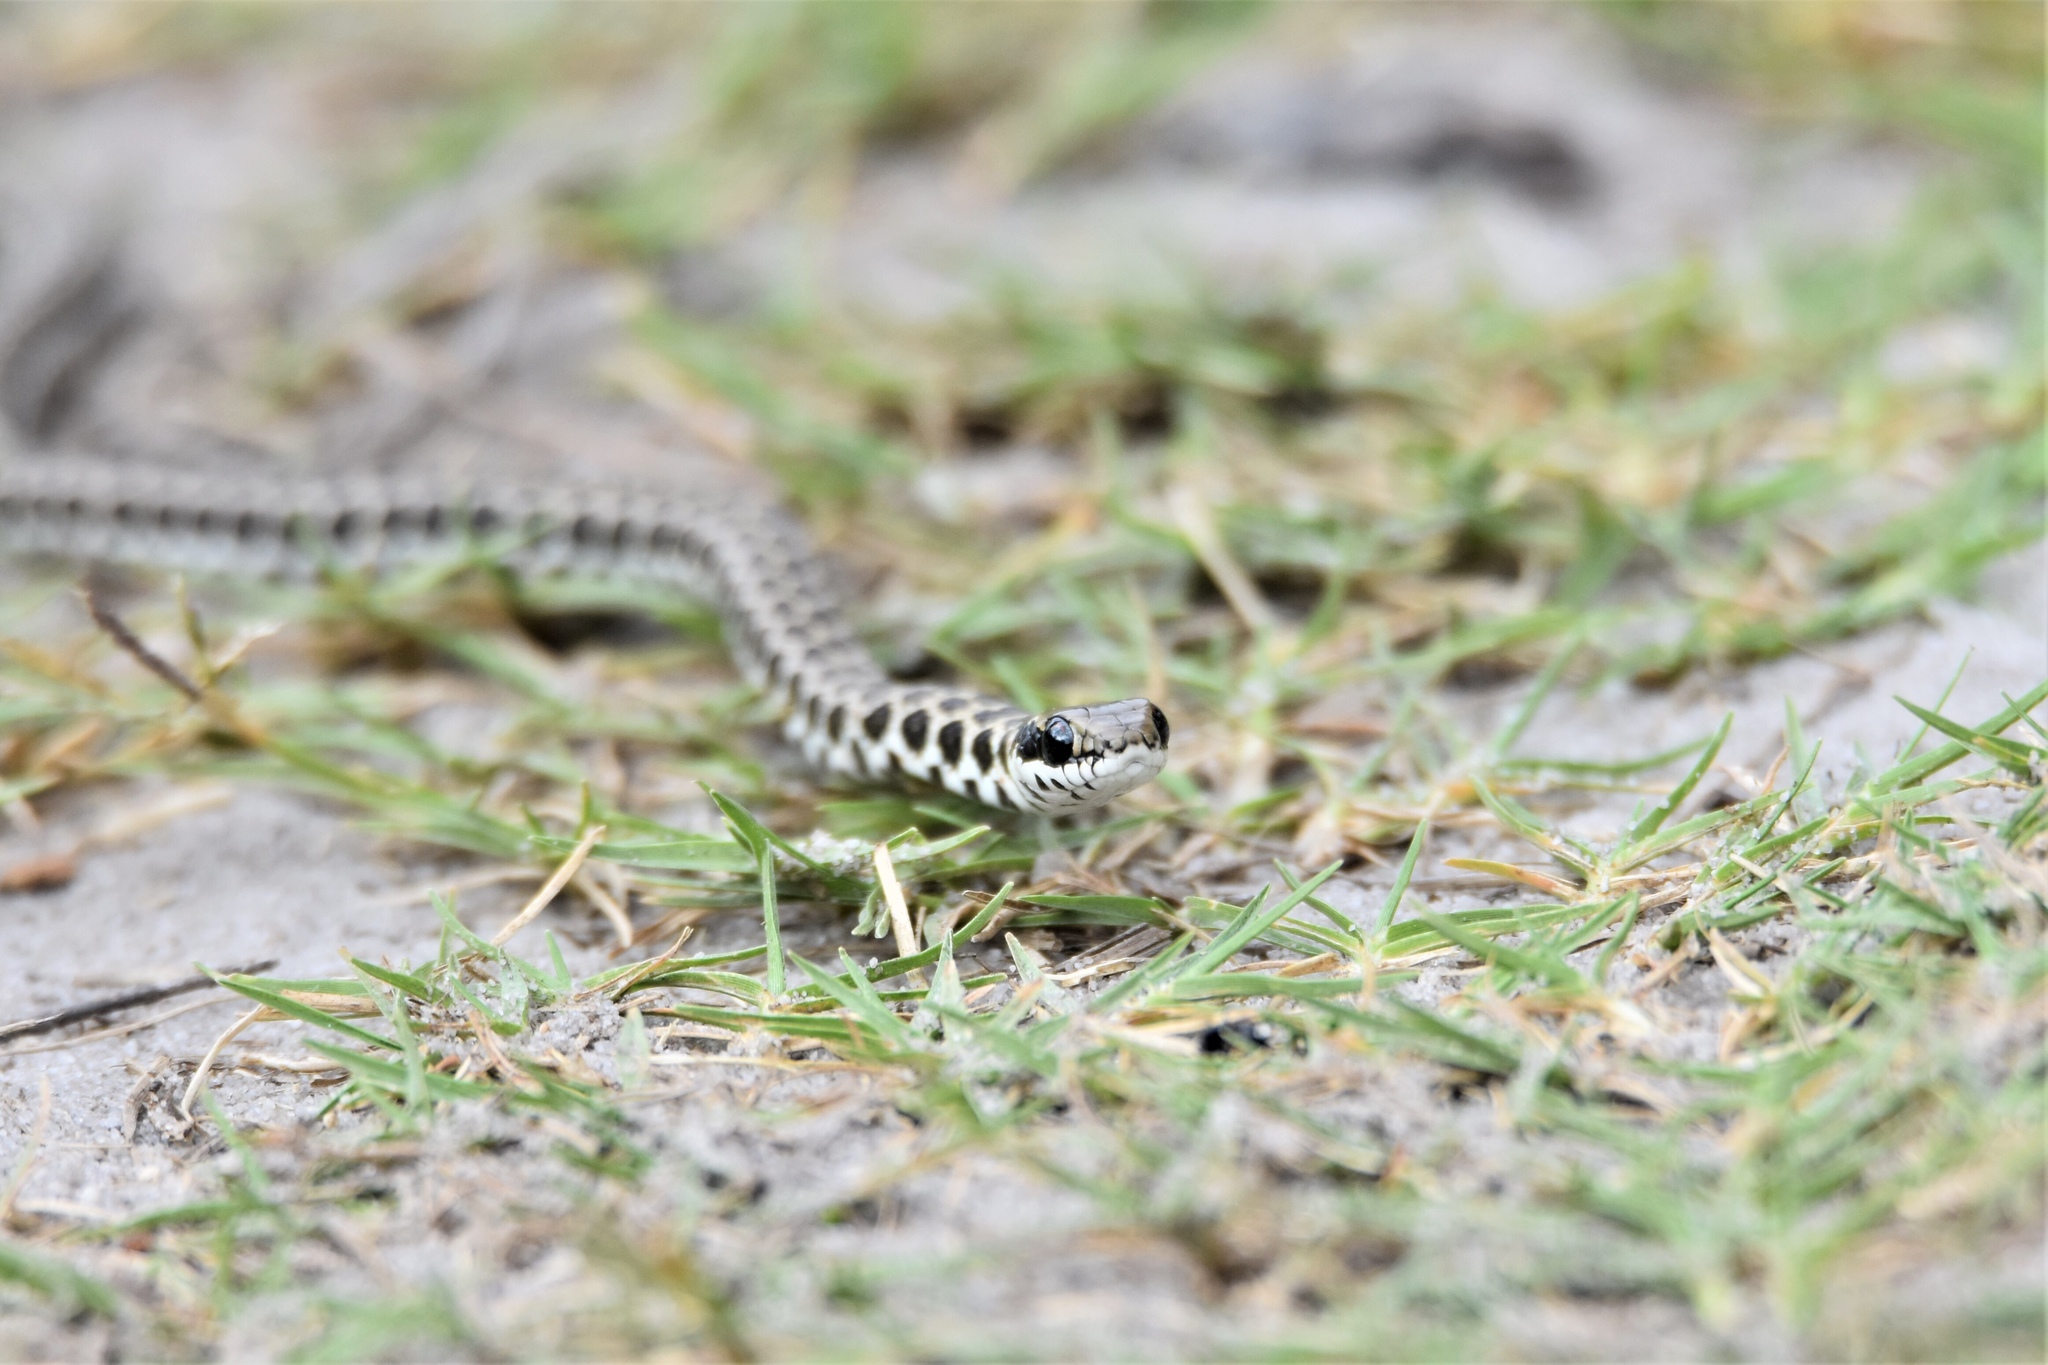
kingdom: Animalia
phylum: Chordata
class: Squamata
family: Psammophiidae
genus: Psammophylax
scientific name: Psammophylax rhombeatus
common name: Rhombic skaapsteker
